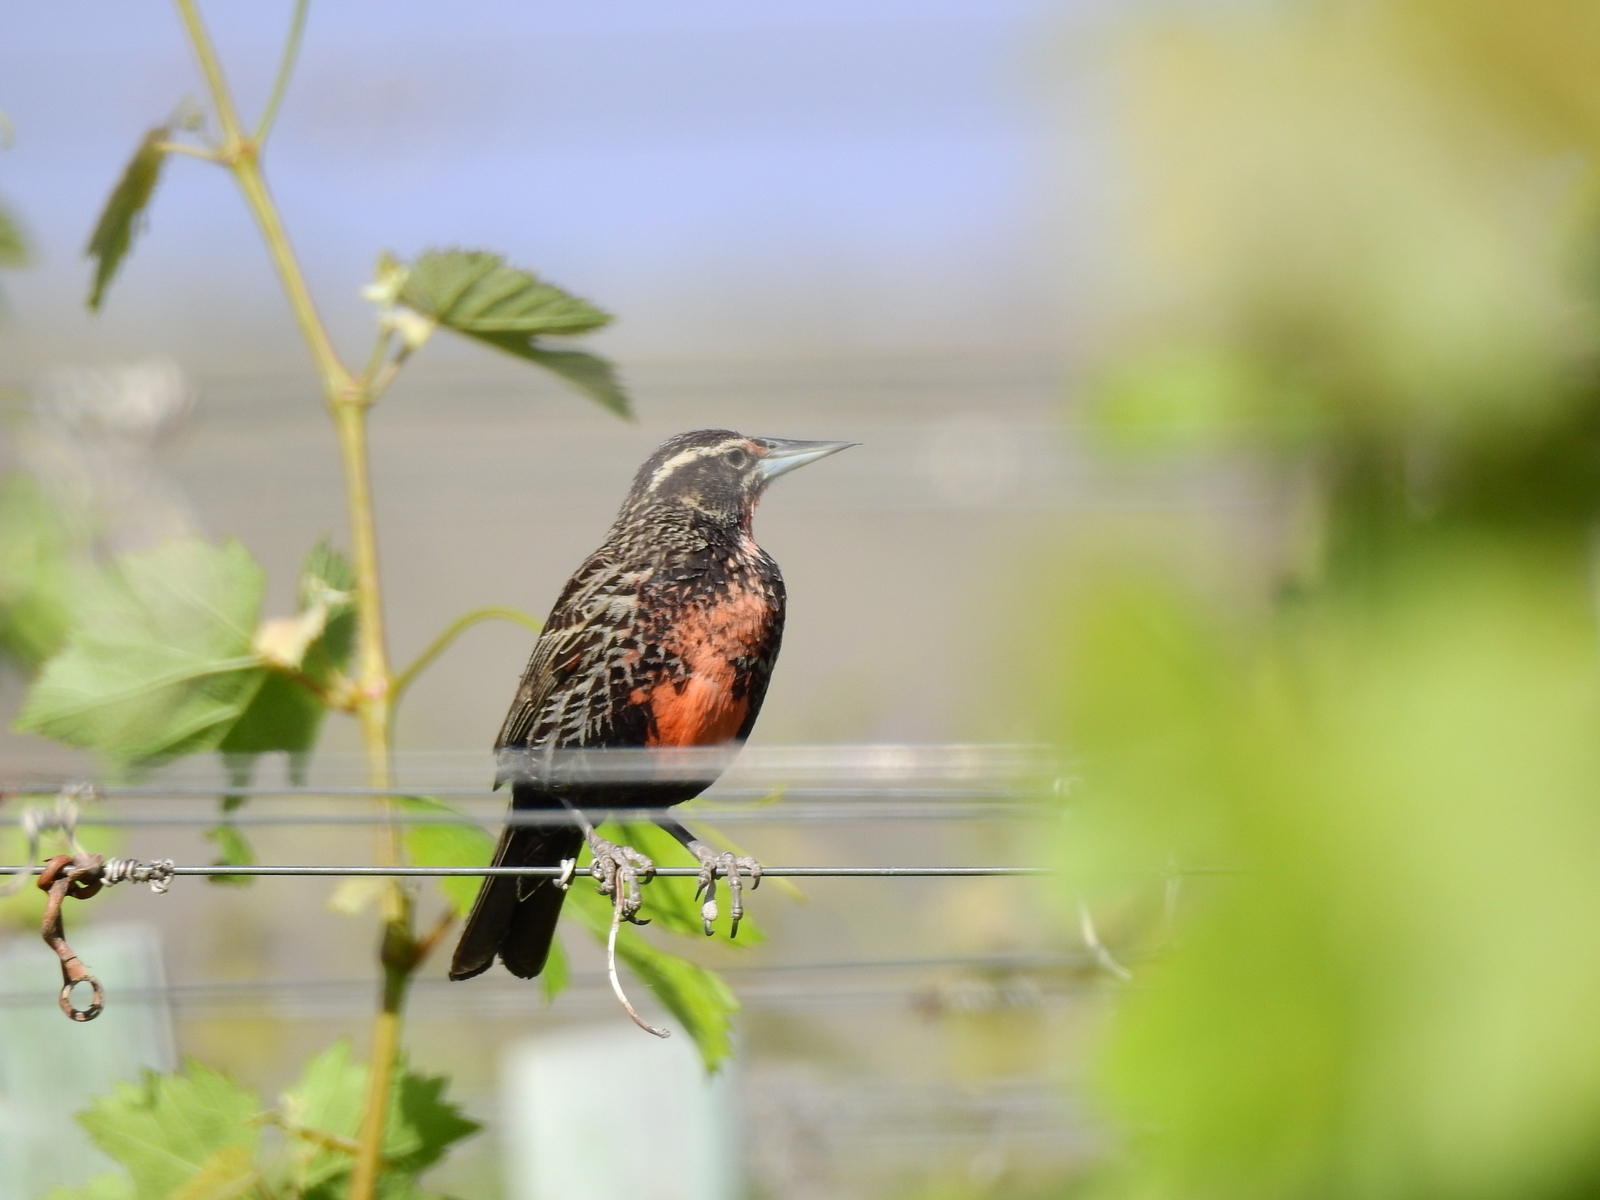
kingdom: Animalia
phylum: Chordata
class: Aves
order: Passeriformes
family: Icteridae
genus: Sturnella
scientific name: Sturnella loyca
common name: Long-tailed meadowlark
